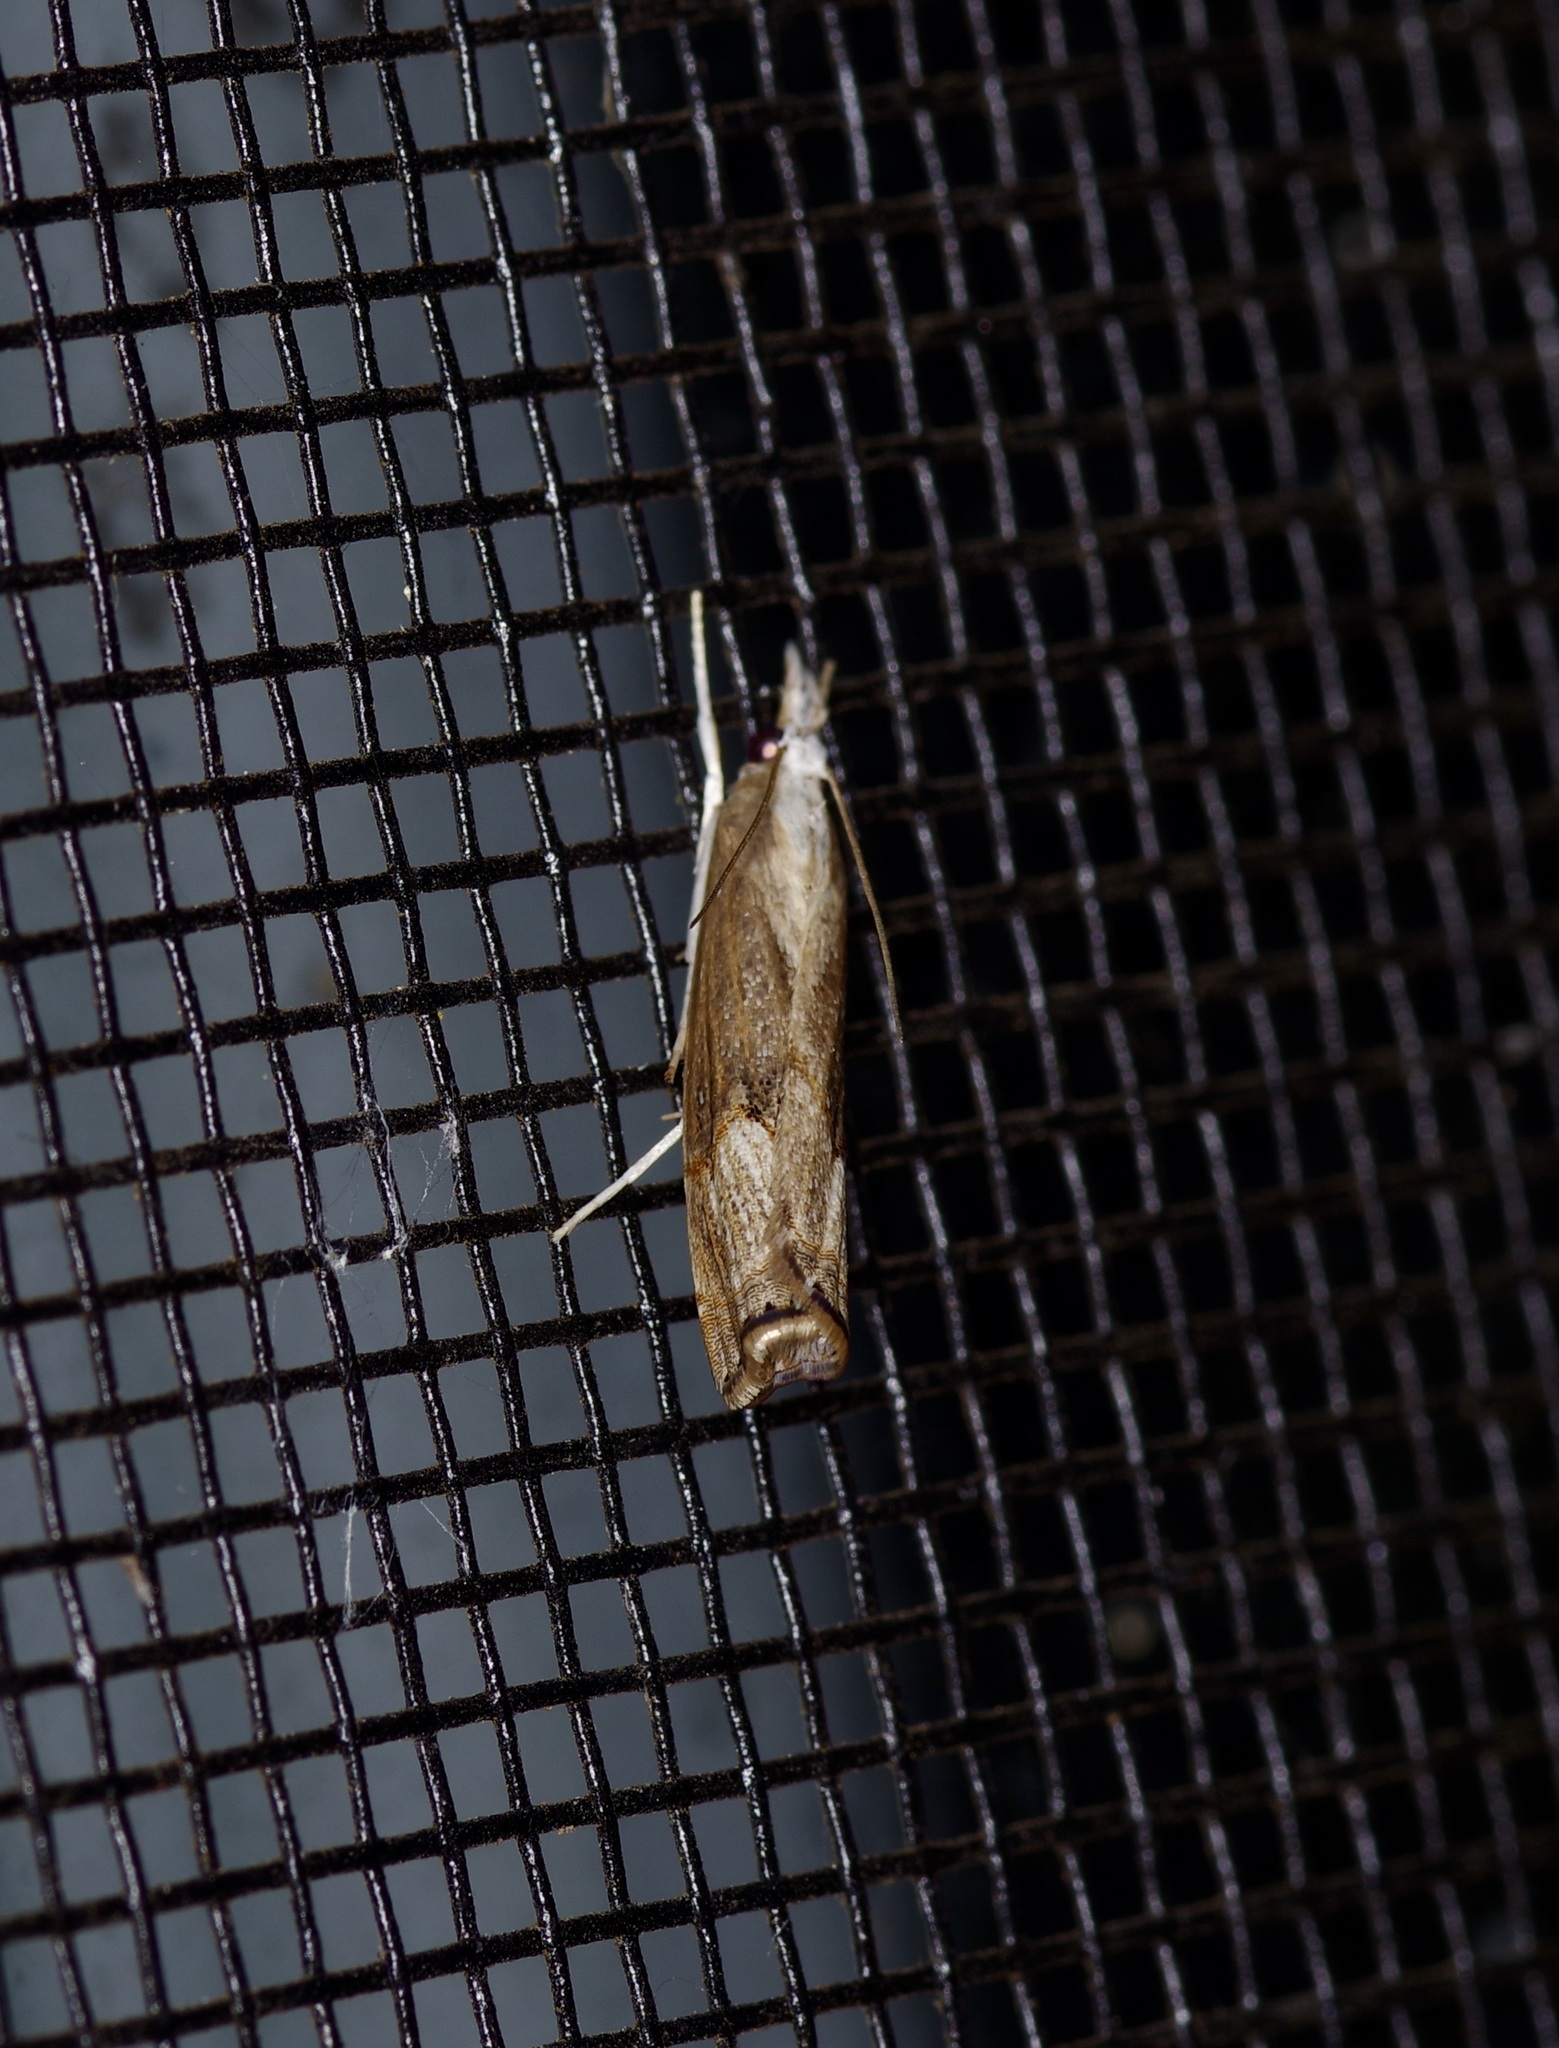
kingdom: Animalia
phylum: Arthropoda
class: Insecta
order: Lepidoptera
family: Crambidae
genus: Parapediasia
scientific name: Parapediasia teterellus
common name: Bluegrass webworm moth
